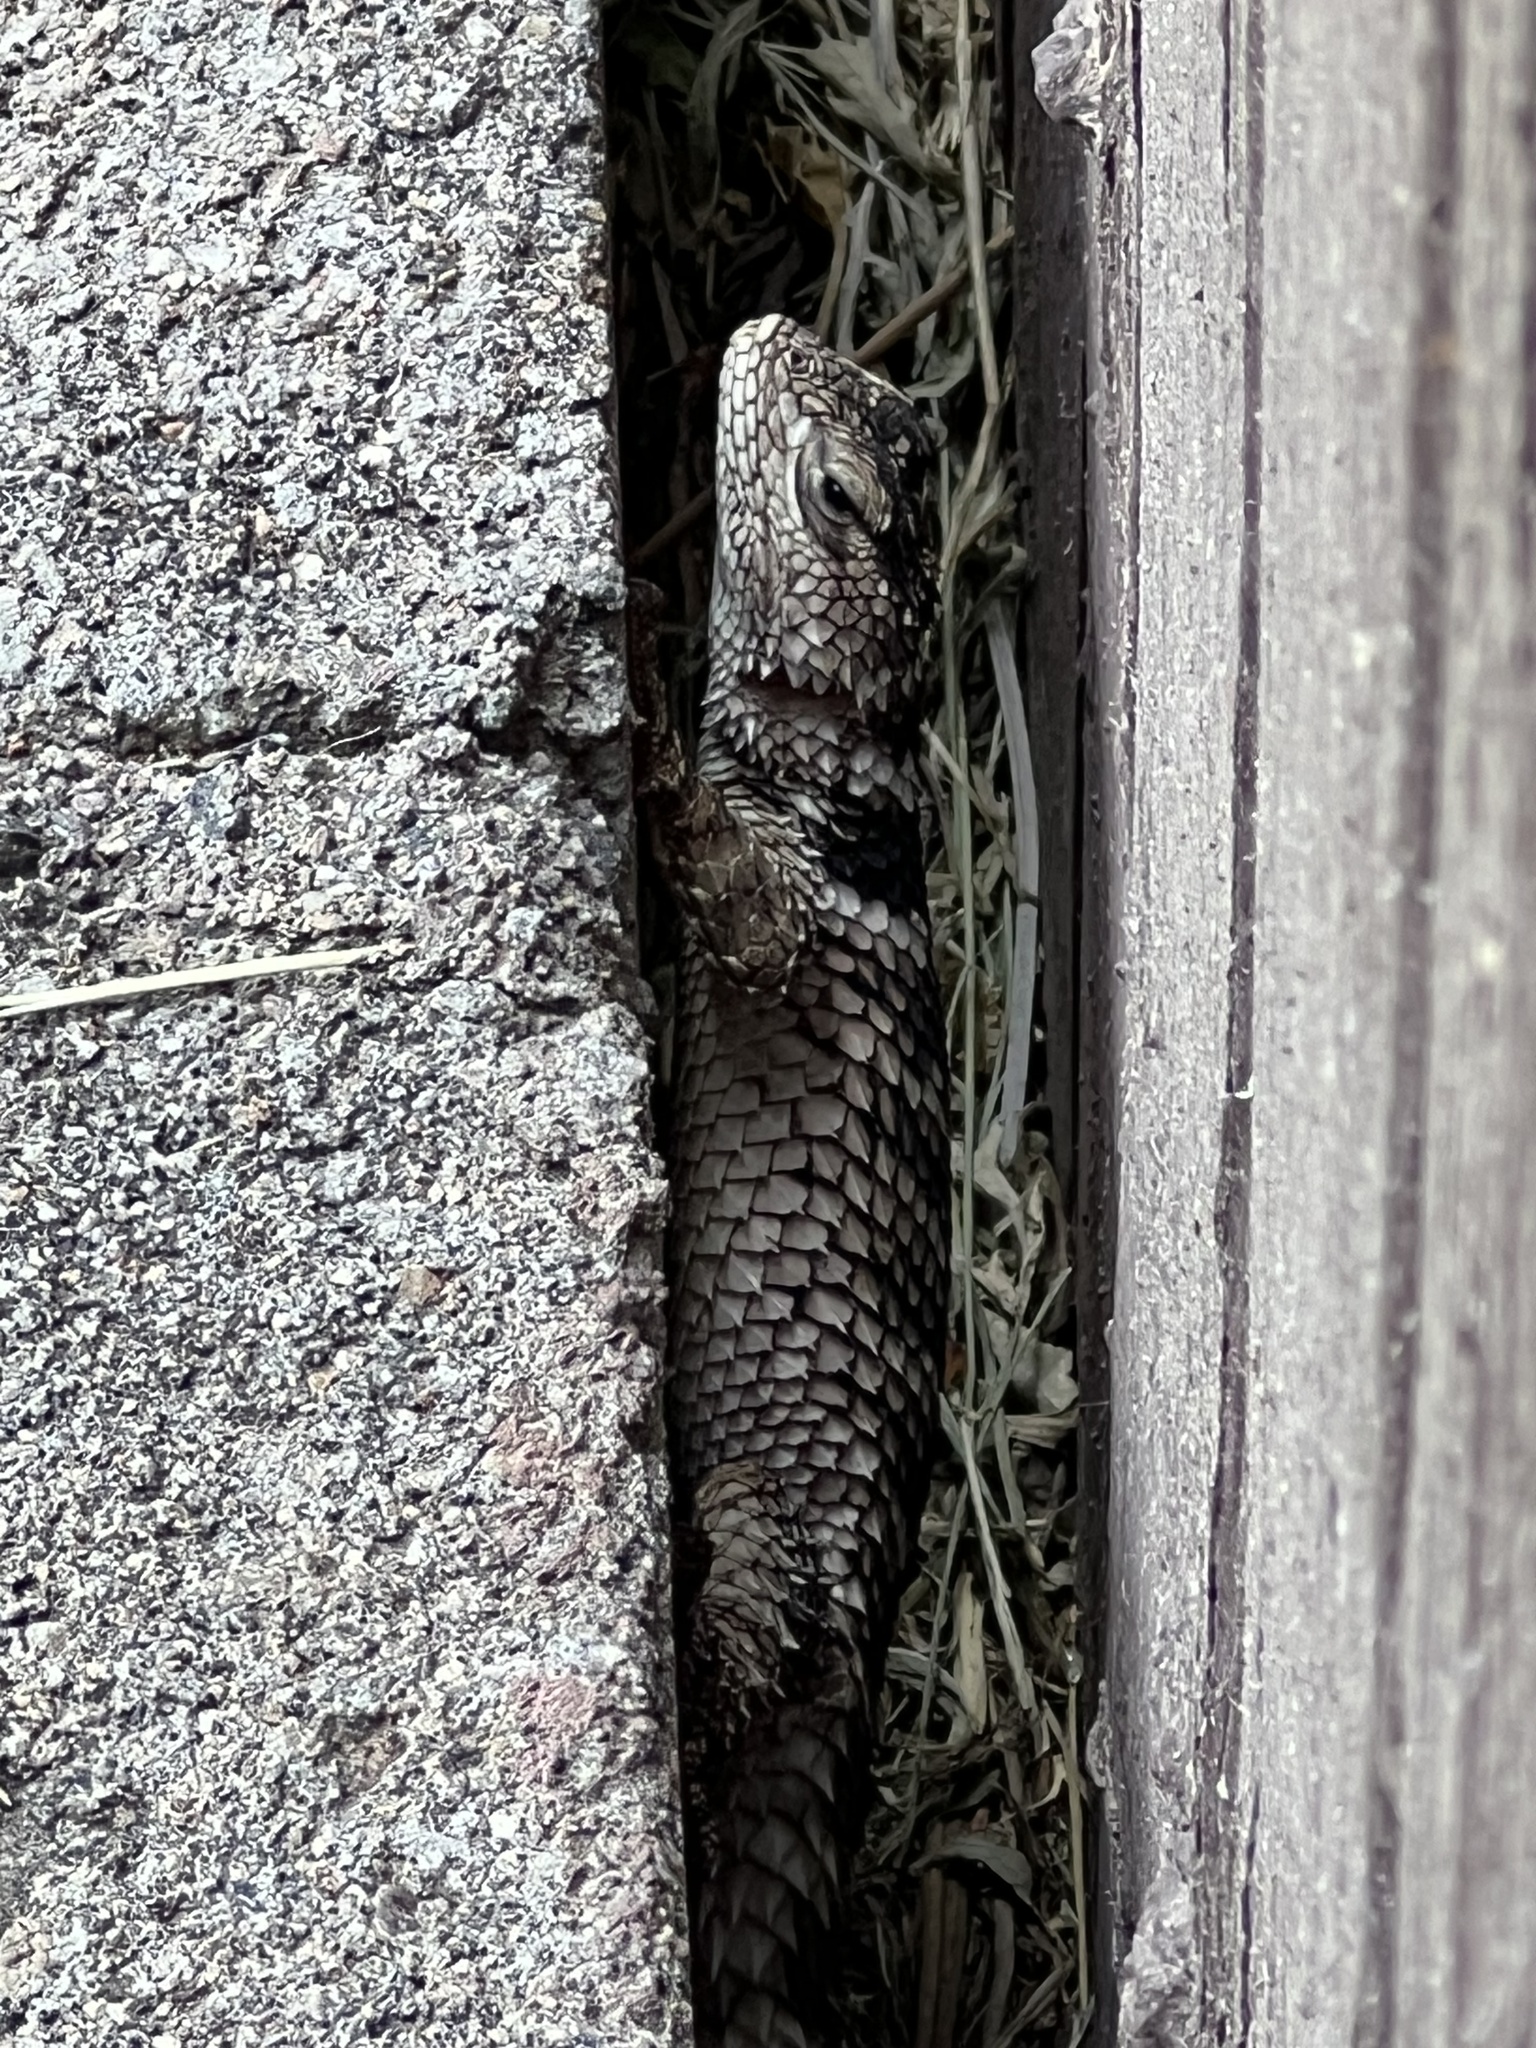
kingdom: Animalia
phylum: Chordata
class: Squamata
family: Phrynosomatidae
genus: Sceloporus
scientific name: Sceloporus poinsettii
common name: Crevice spiny lizard
